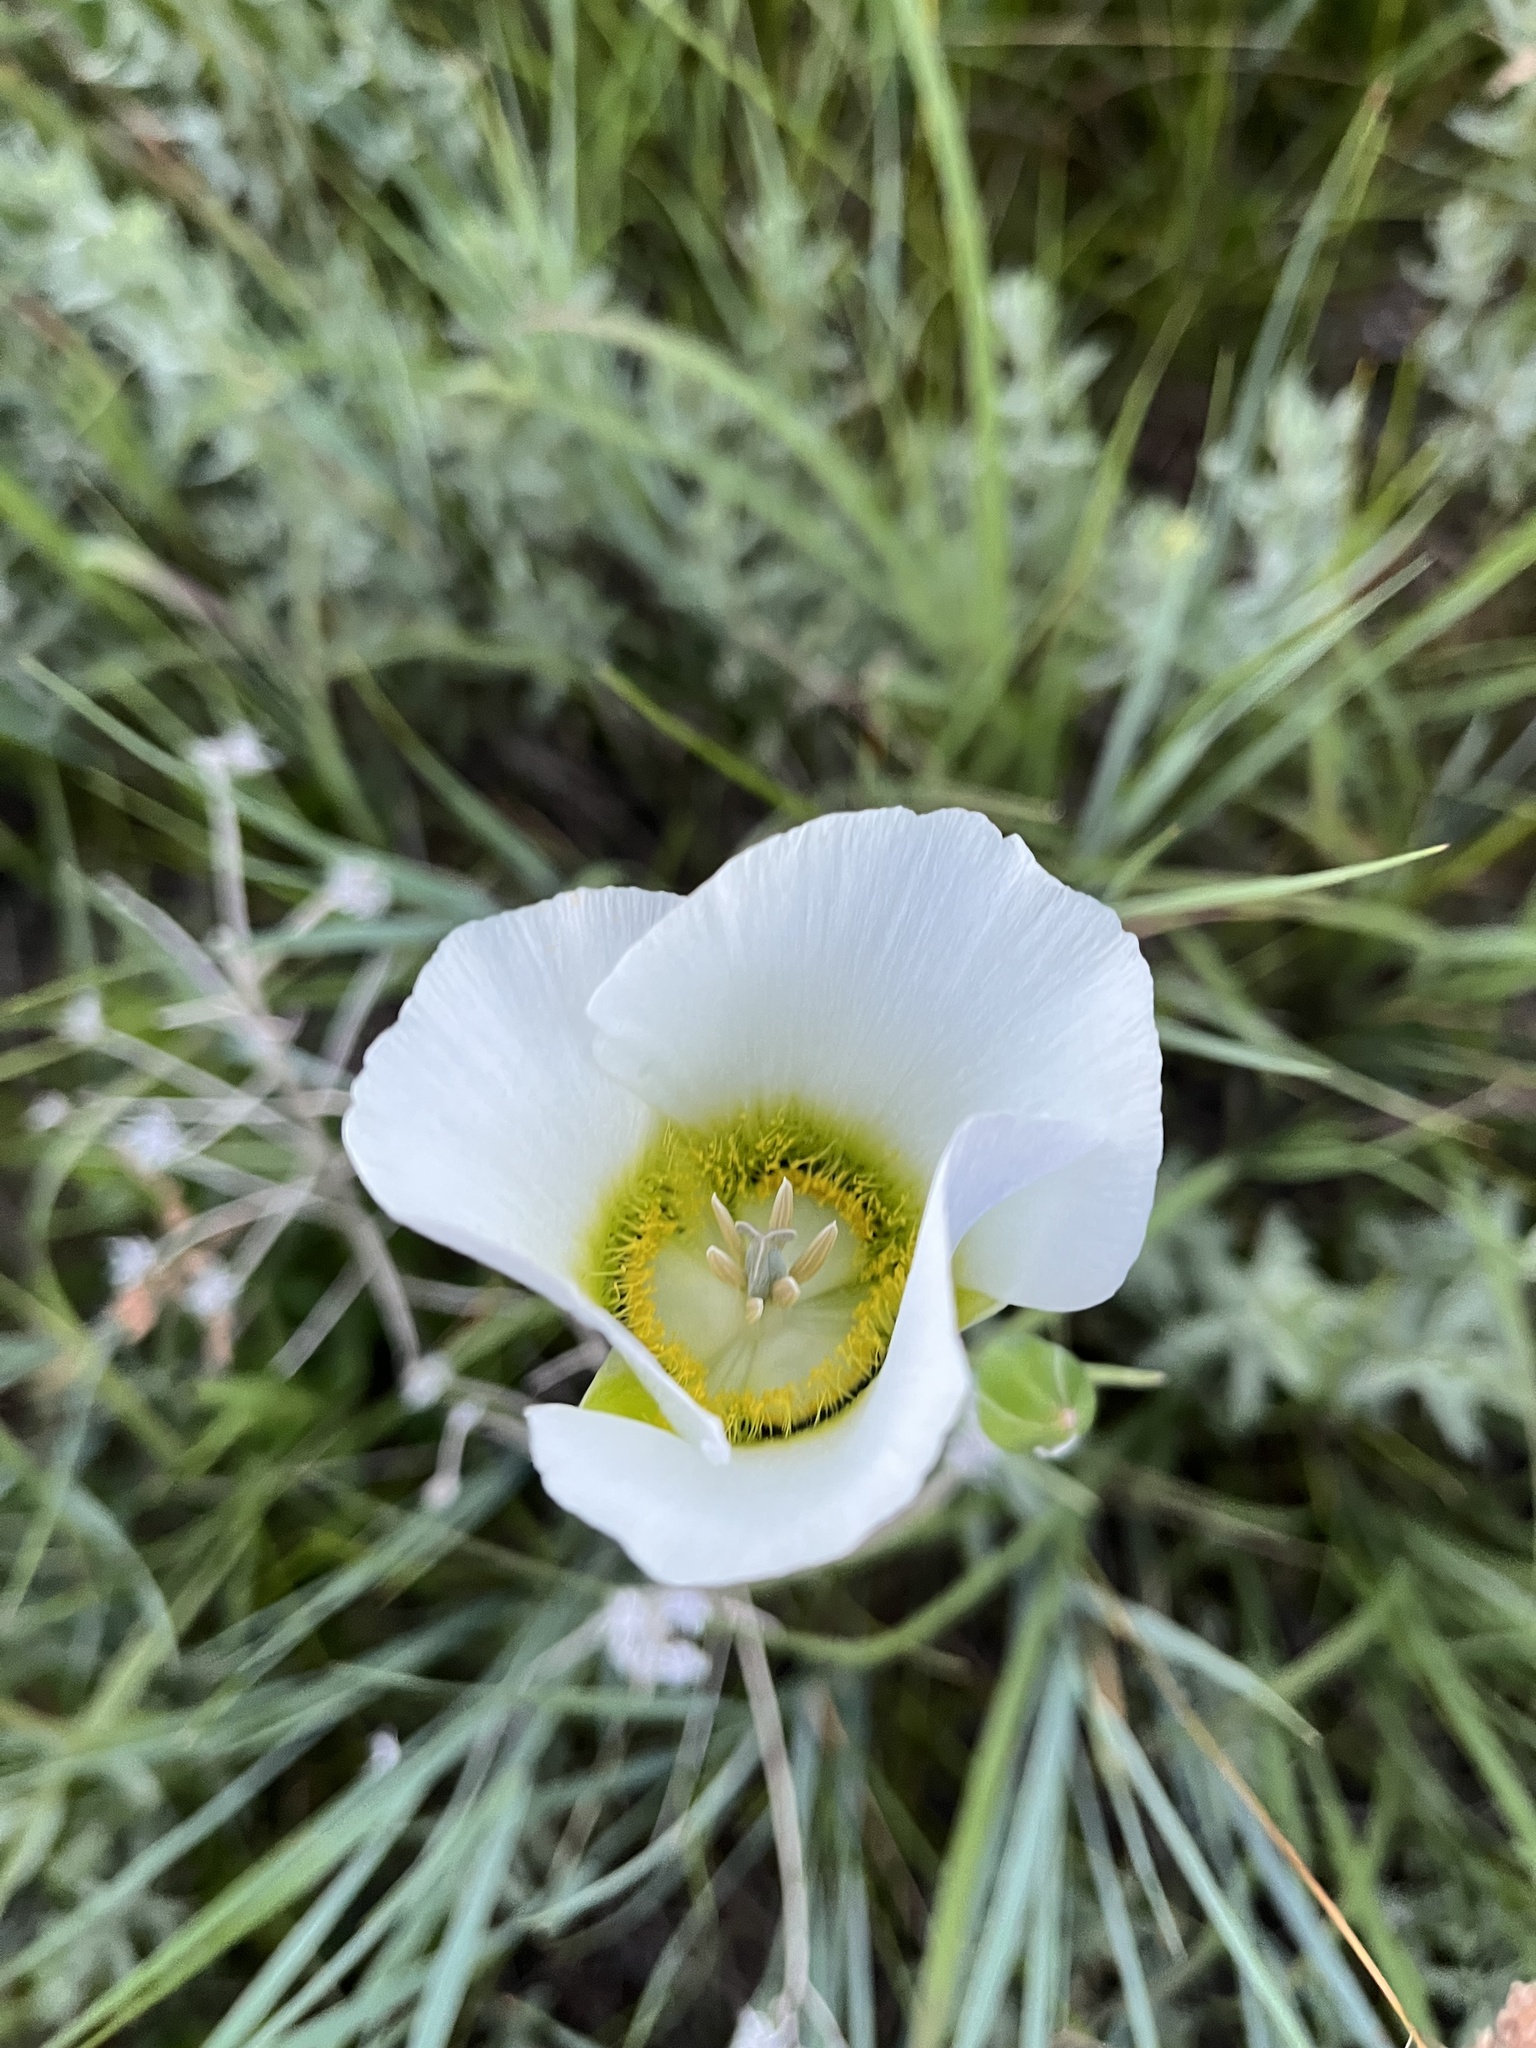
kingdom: Plantae
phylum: Tracheophyta
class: Liliopsida
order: Liliales
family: Liliaceae
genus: Calochortus
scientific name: Calochortus gunnisonii
